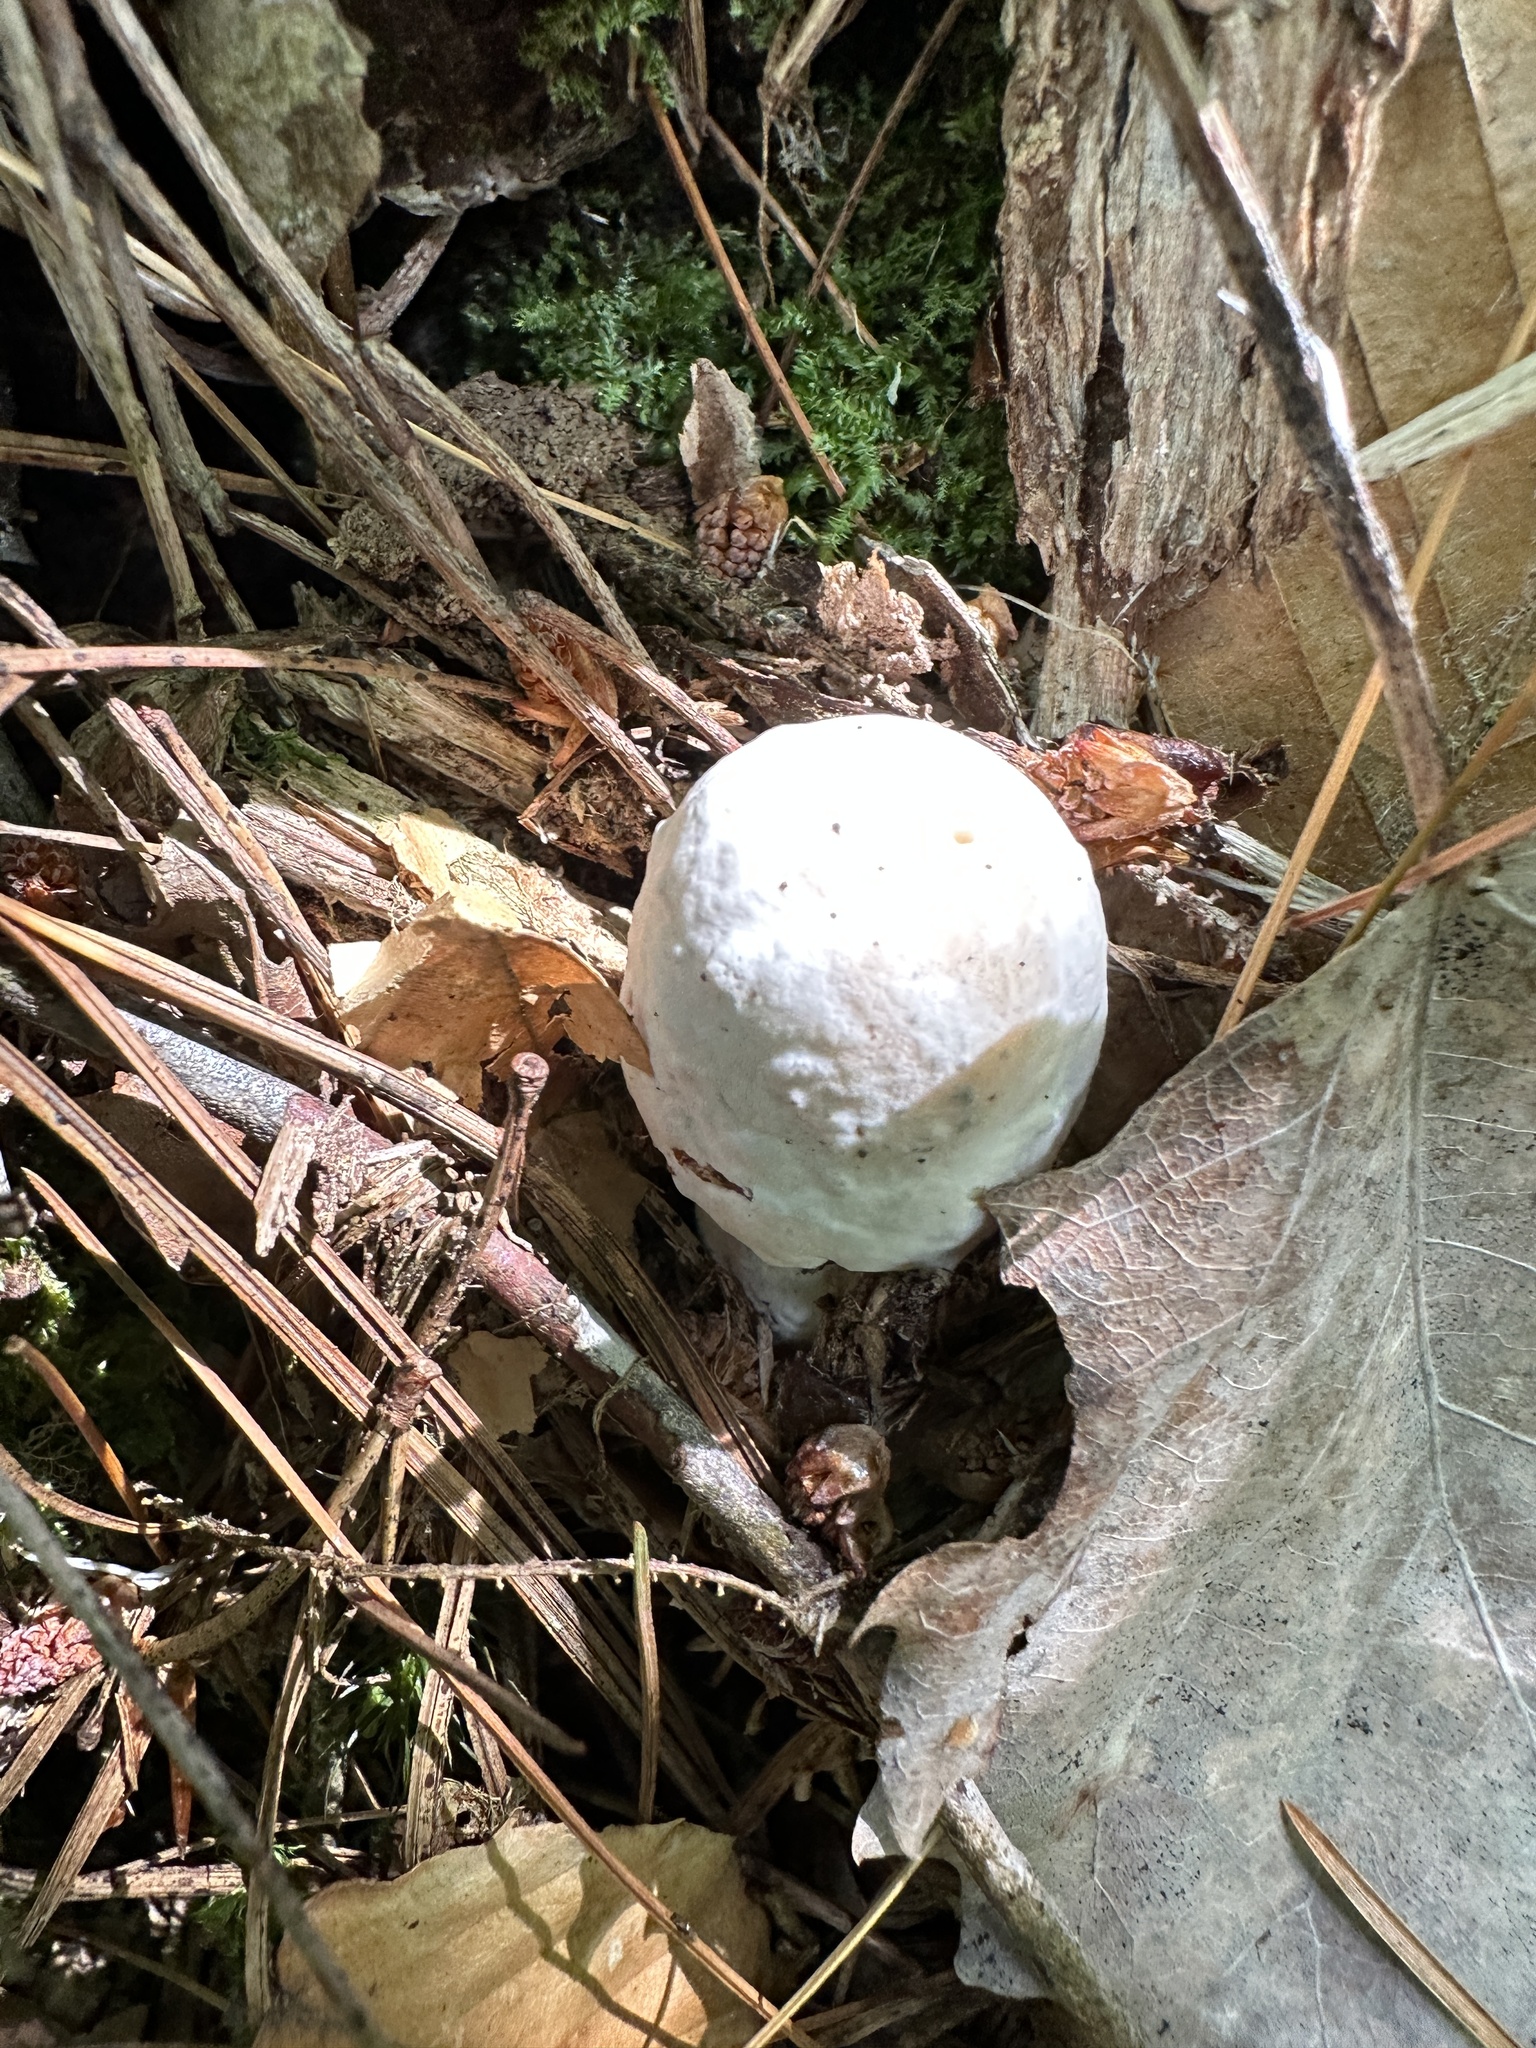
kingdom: Fungi
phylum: Ascomycota
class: Sordariomycetes
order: Hypocreales
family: Hypocreaceae
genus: Hypomyces
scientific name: Hypomyces hyalinus
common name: Amanita mold
